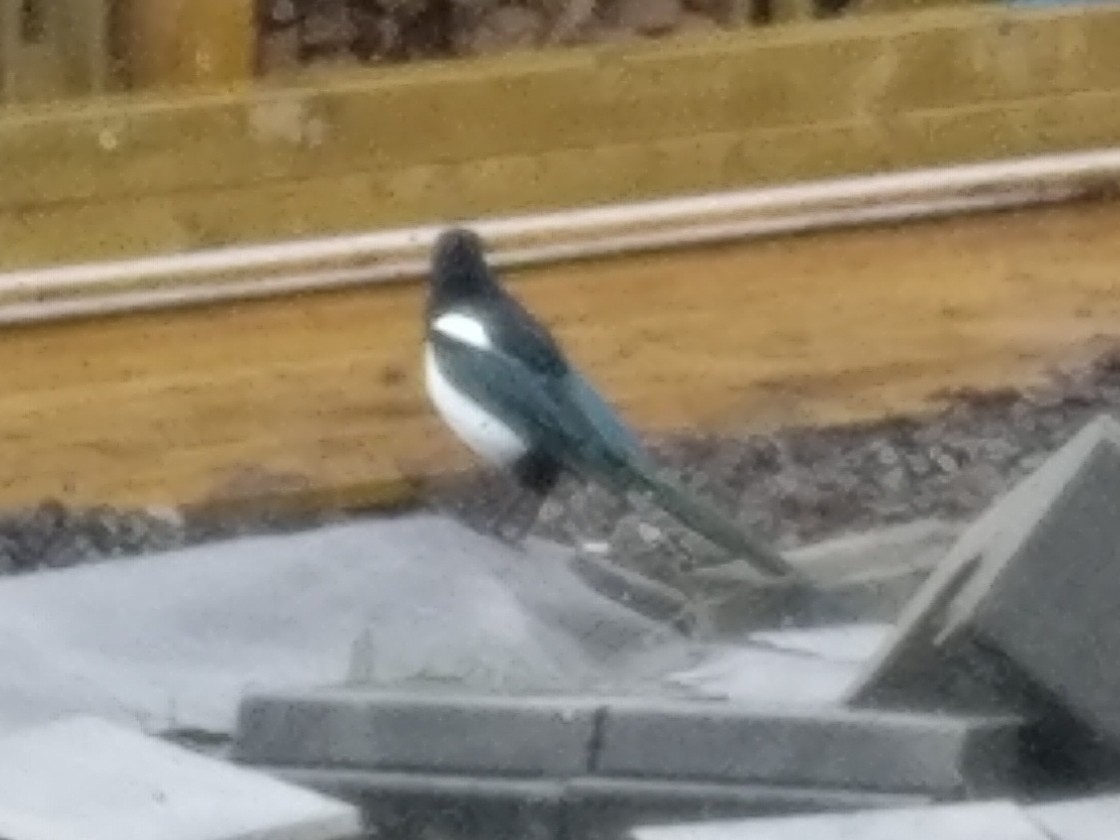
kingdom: Animalia
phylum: Chordata
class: Aves
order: Passeriformes
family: Corvidae
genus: Pica
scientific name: Pica pica
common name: Eurasian magpie
